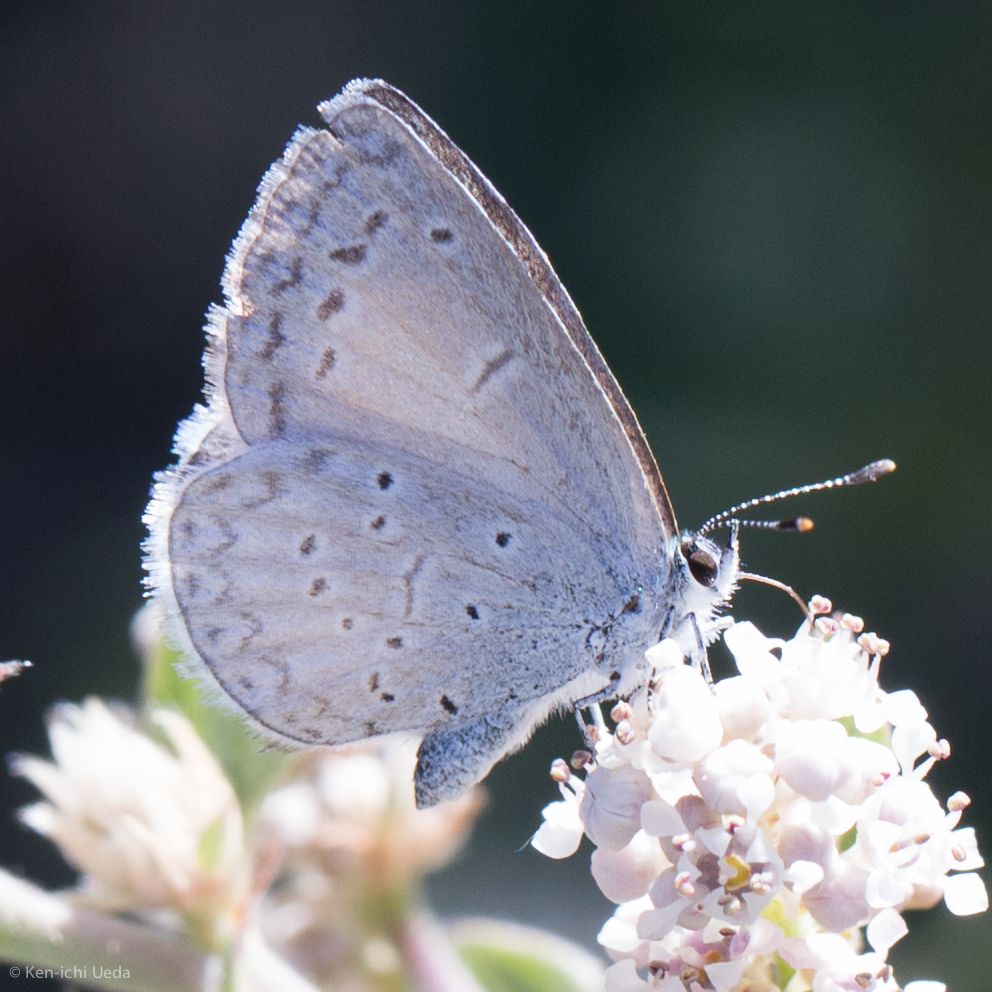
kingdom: Animalia
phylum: Arthropoda
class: Insecta
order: Lepidoptera
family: Lycaenidae
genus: Celastrina
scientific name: Celastrina ladon
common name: Spring azure
